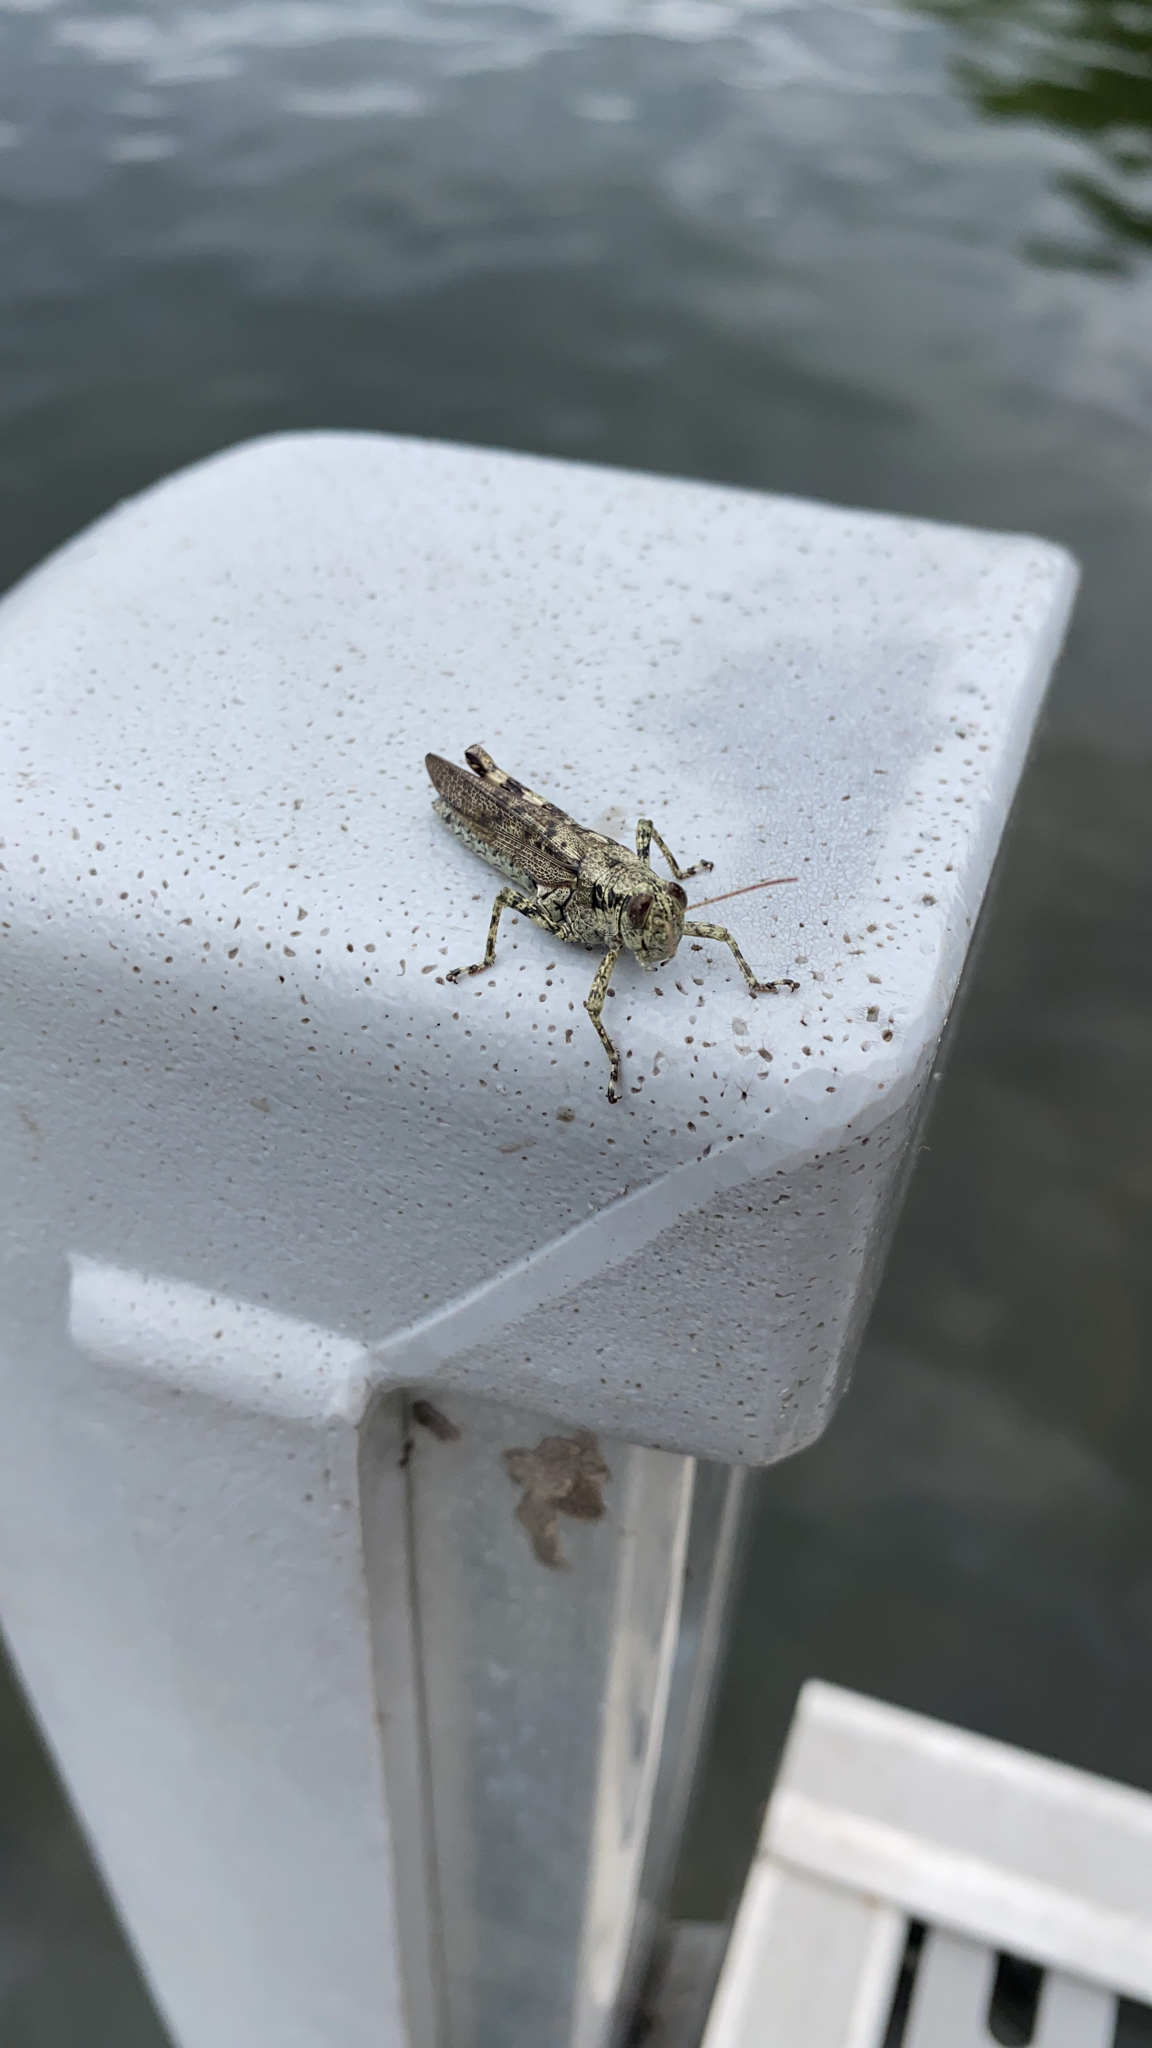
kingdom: Animalia
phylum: Arthropoda
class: Insecta
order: Orthoptera
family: Acrididae
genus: Melanoplus
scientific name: Melanoplus punctulatus
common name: Pine-tree spur-throat grasshopper
